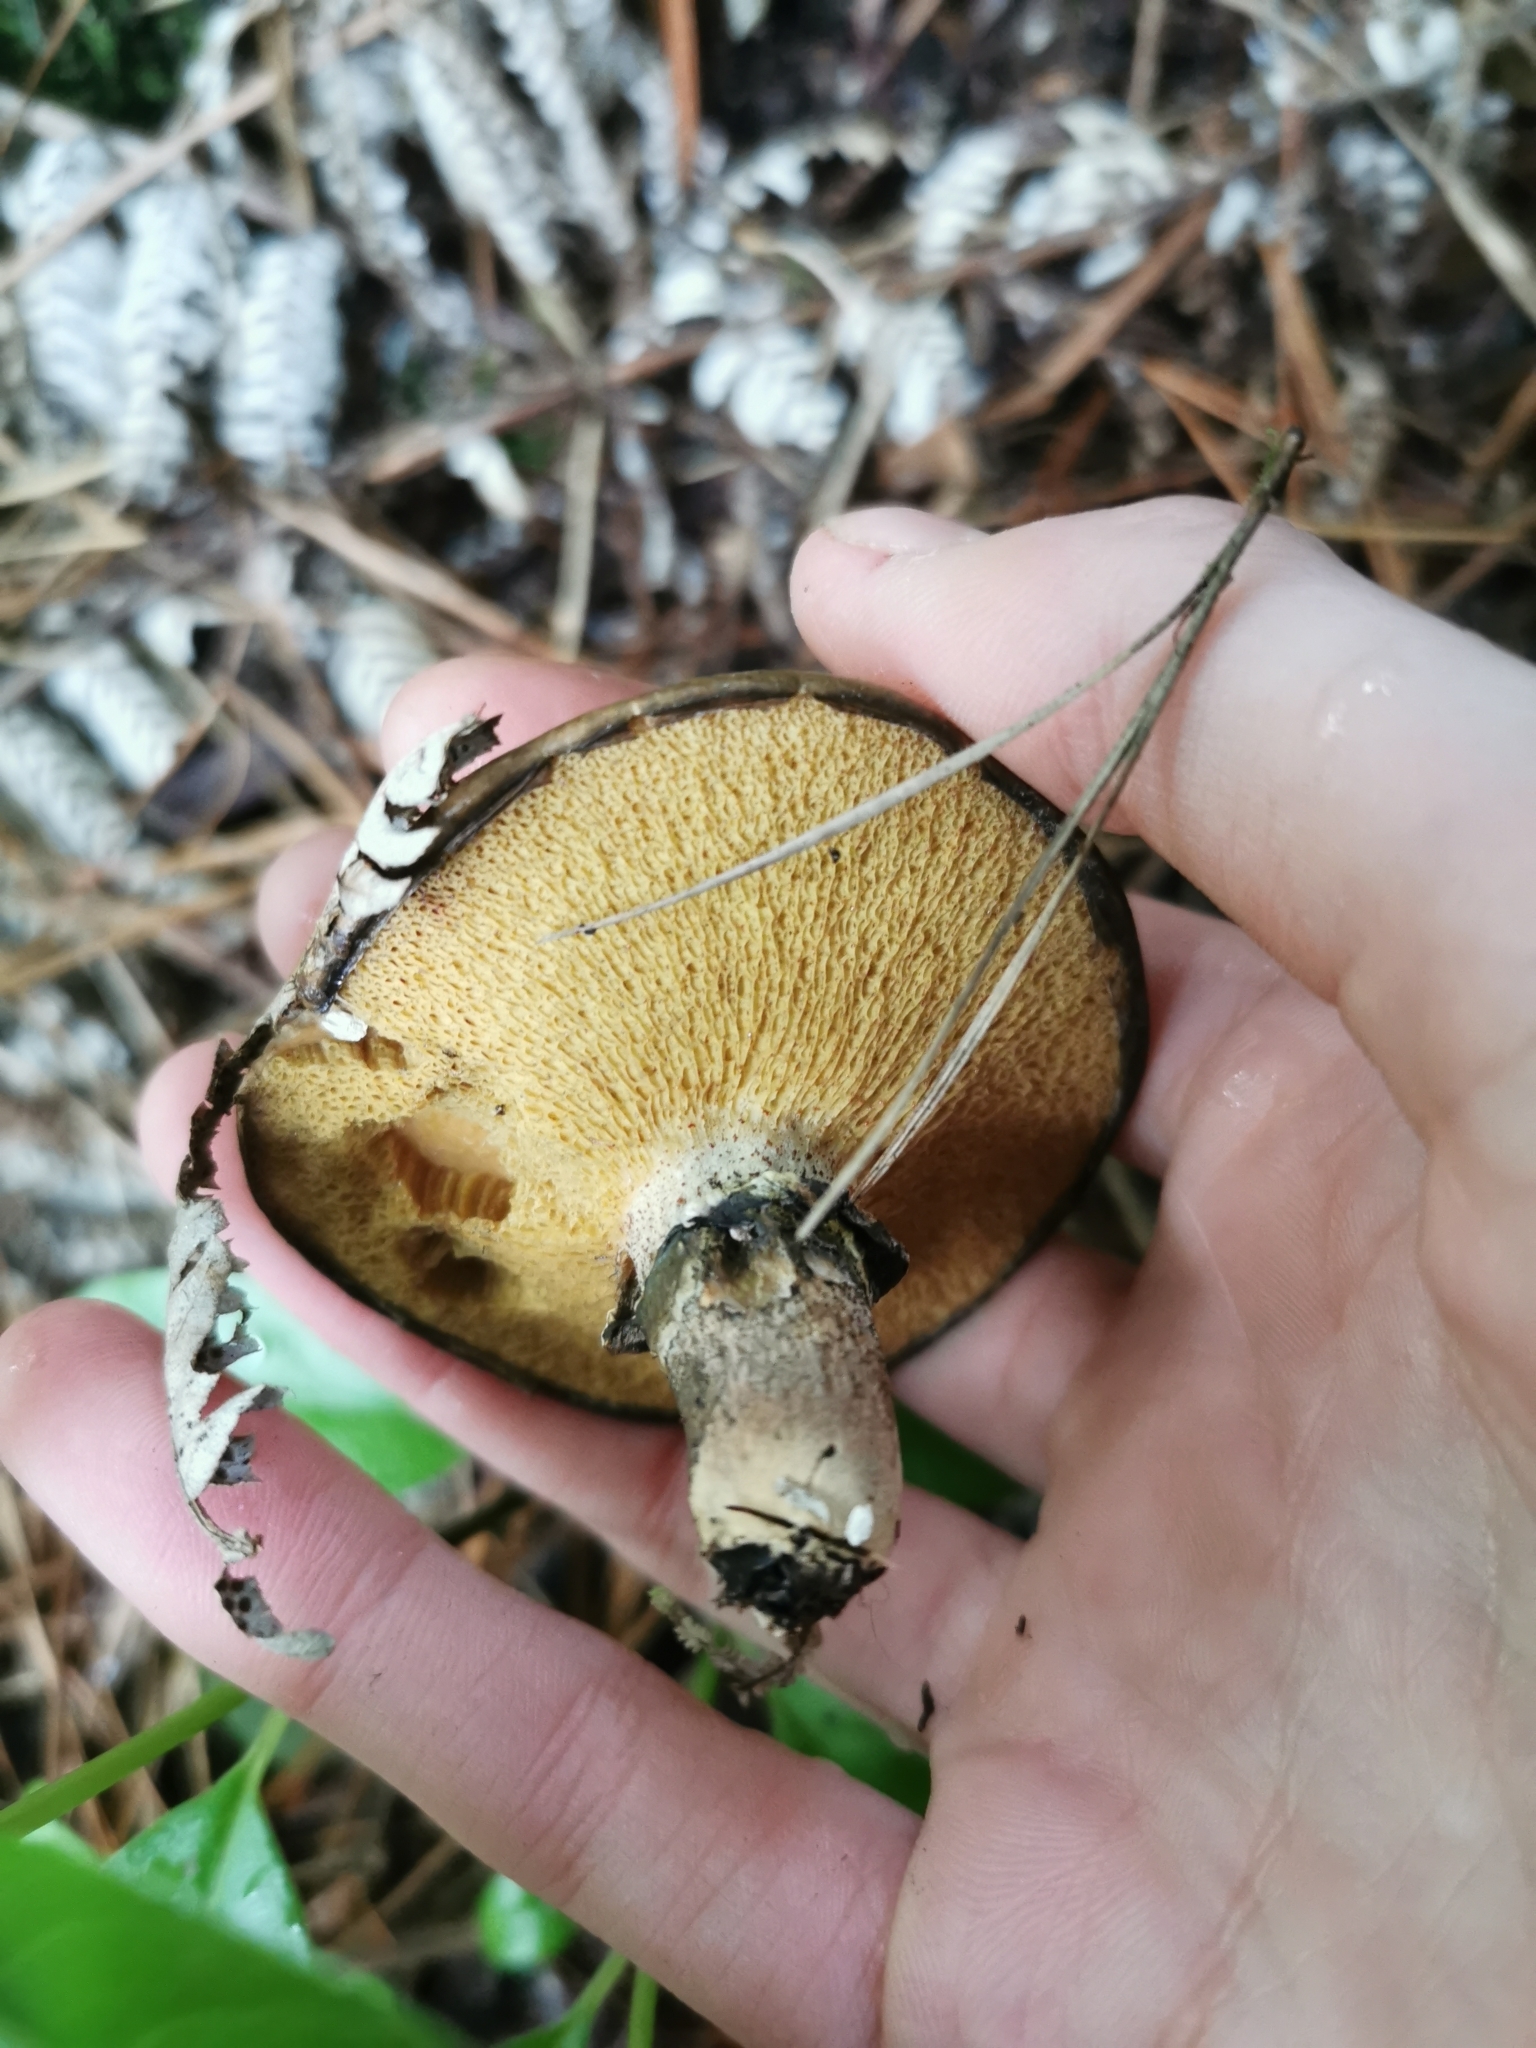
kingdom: Fungi
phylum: Basidiomycota
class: Agaricomycetes
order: Boletales
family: Suillaceae
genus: Suillus
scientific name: Suillus luteus
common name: Slippery jack
